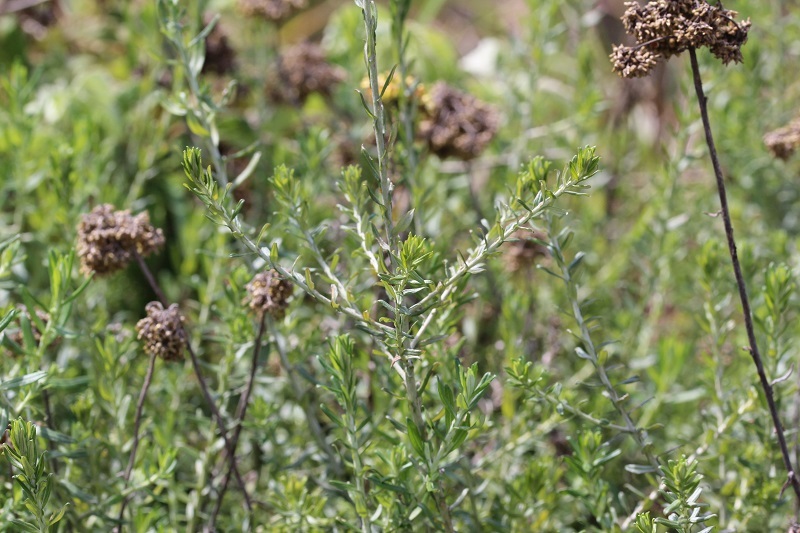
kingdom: Plantae
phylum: Tracheophyta
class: Magnoliopsida
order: Asterales
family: Asteraceae
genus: Helichrysum
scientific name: Helichrysum cymosum
